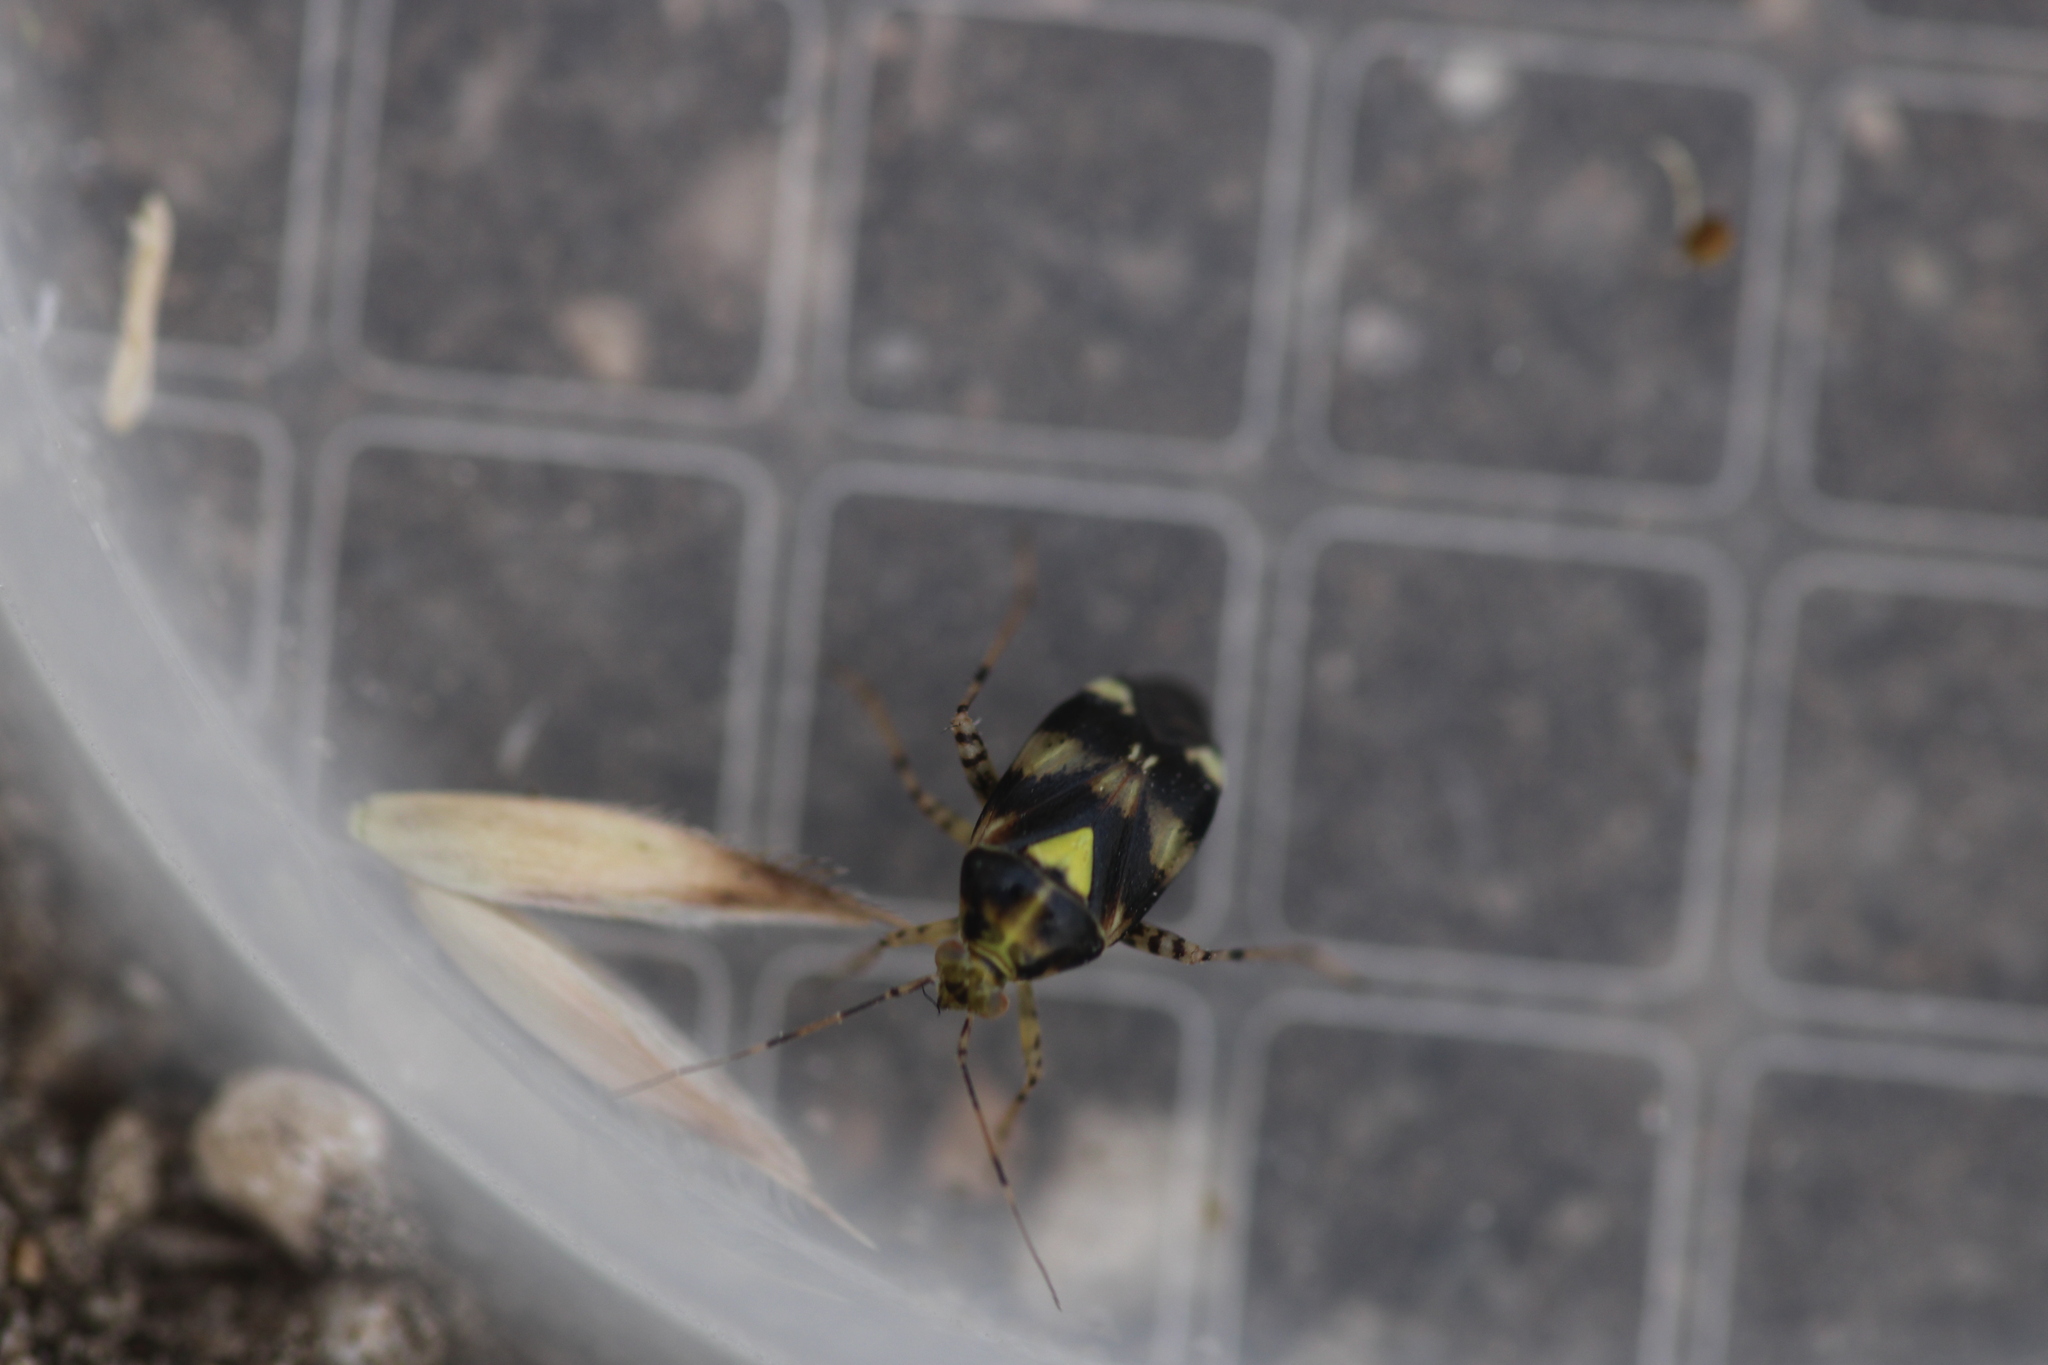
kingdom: Animalia
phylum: Arthropoda
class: Insecta
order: Hemiptera
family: Miridae
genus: Liocoris
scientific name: Liocoris tripustulatus
